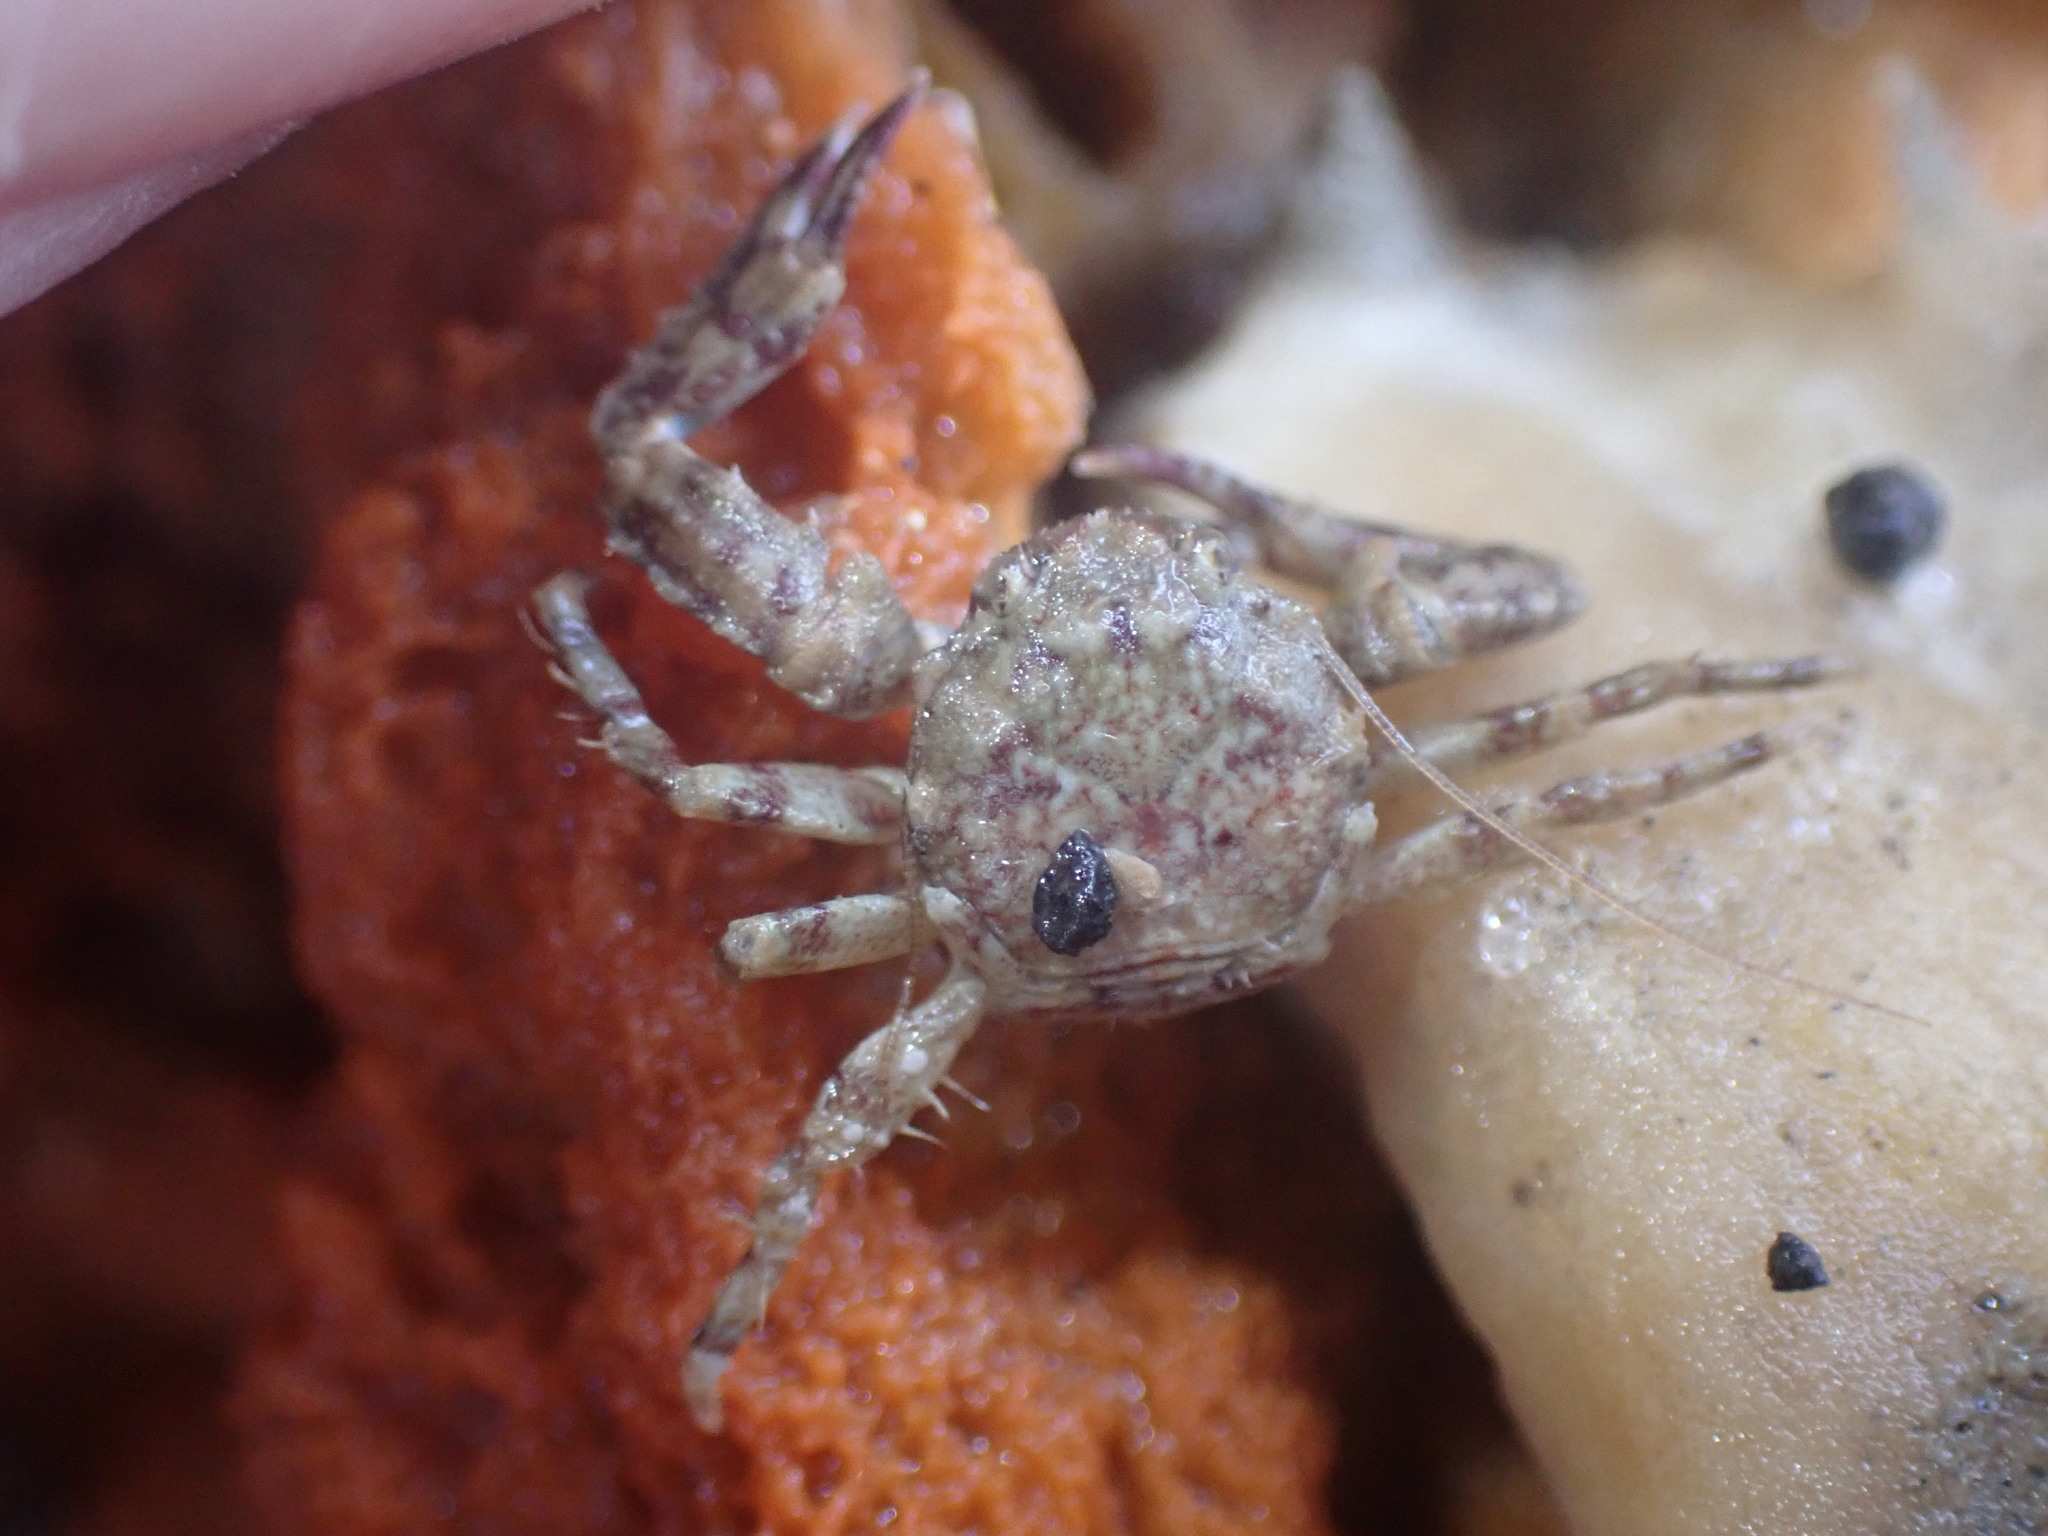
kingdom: Animalia
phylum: Arthropoda
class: Malacostraca
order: Decapoda
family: Porcellanidae
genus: Petrolisthes
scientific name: Petrolisthes novaezelandiae
